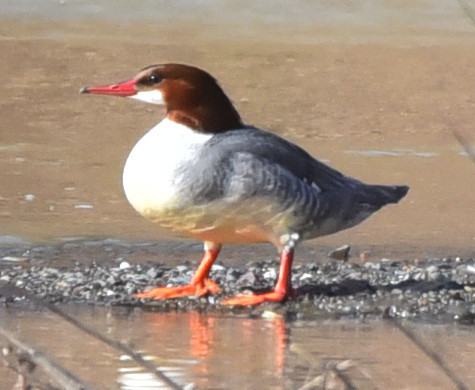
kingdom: Animalia
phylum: Chordata
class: Aves
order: Anseriformes
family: Anatidae
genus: Mergus
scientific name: Mergus merganser
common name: Common merganser
